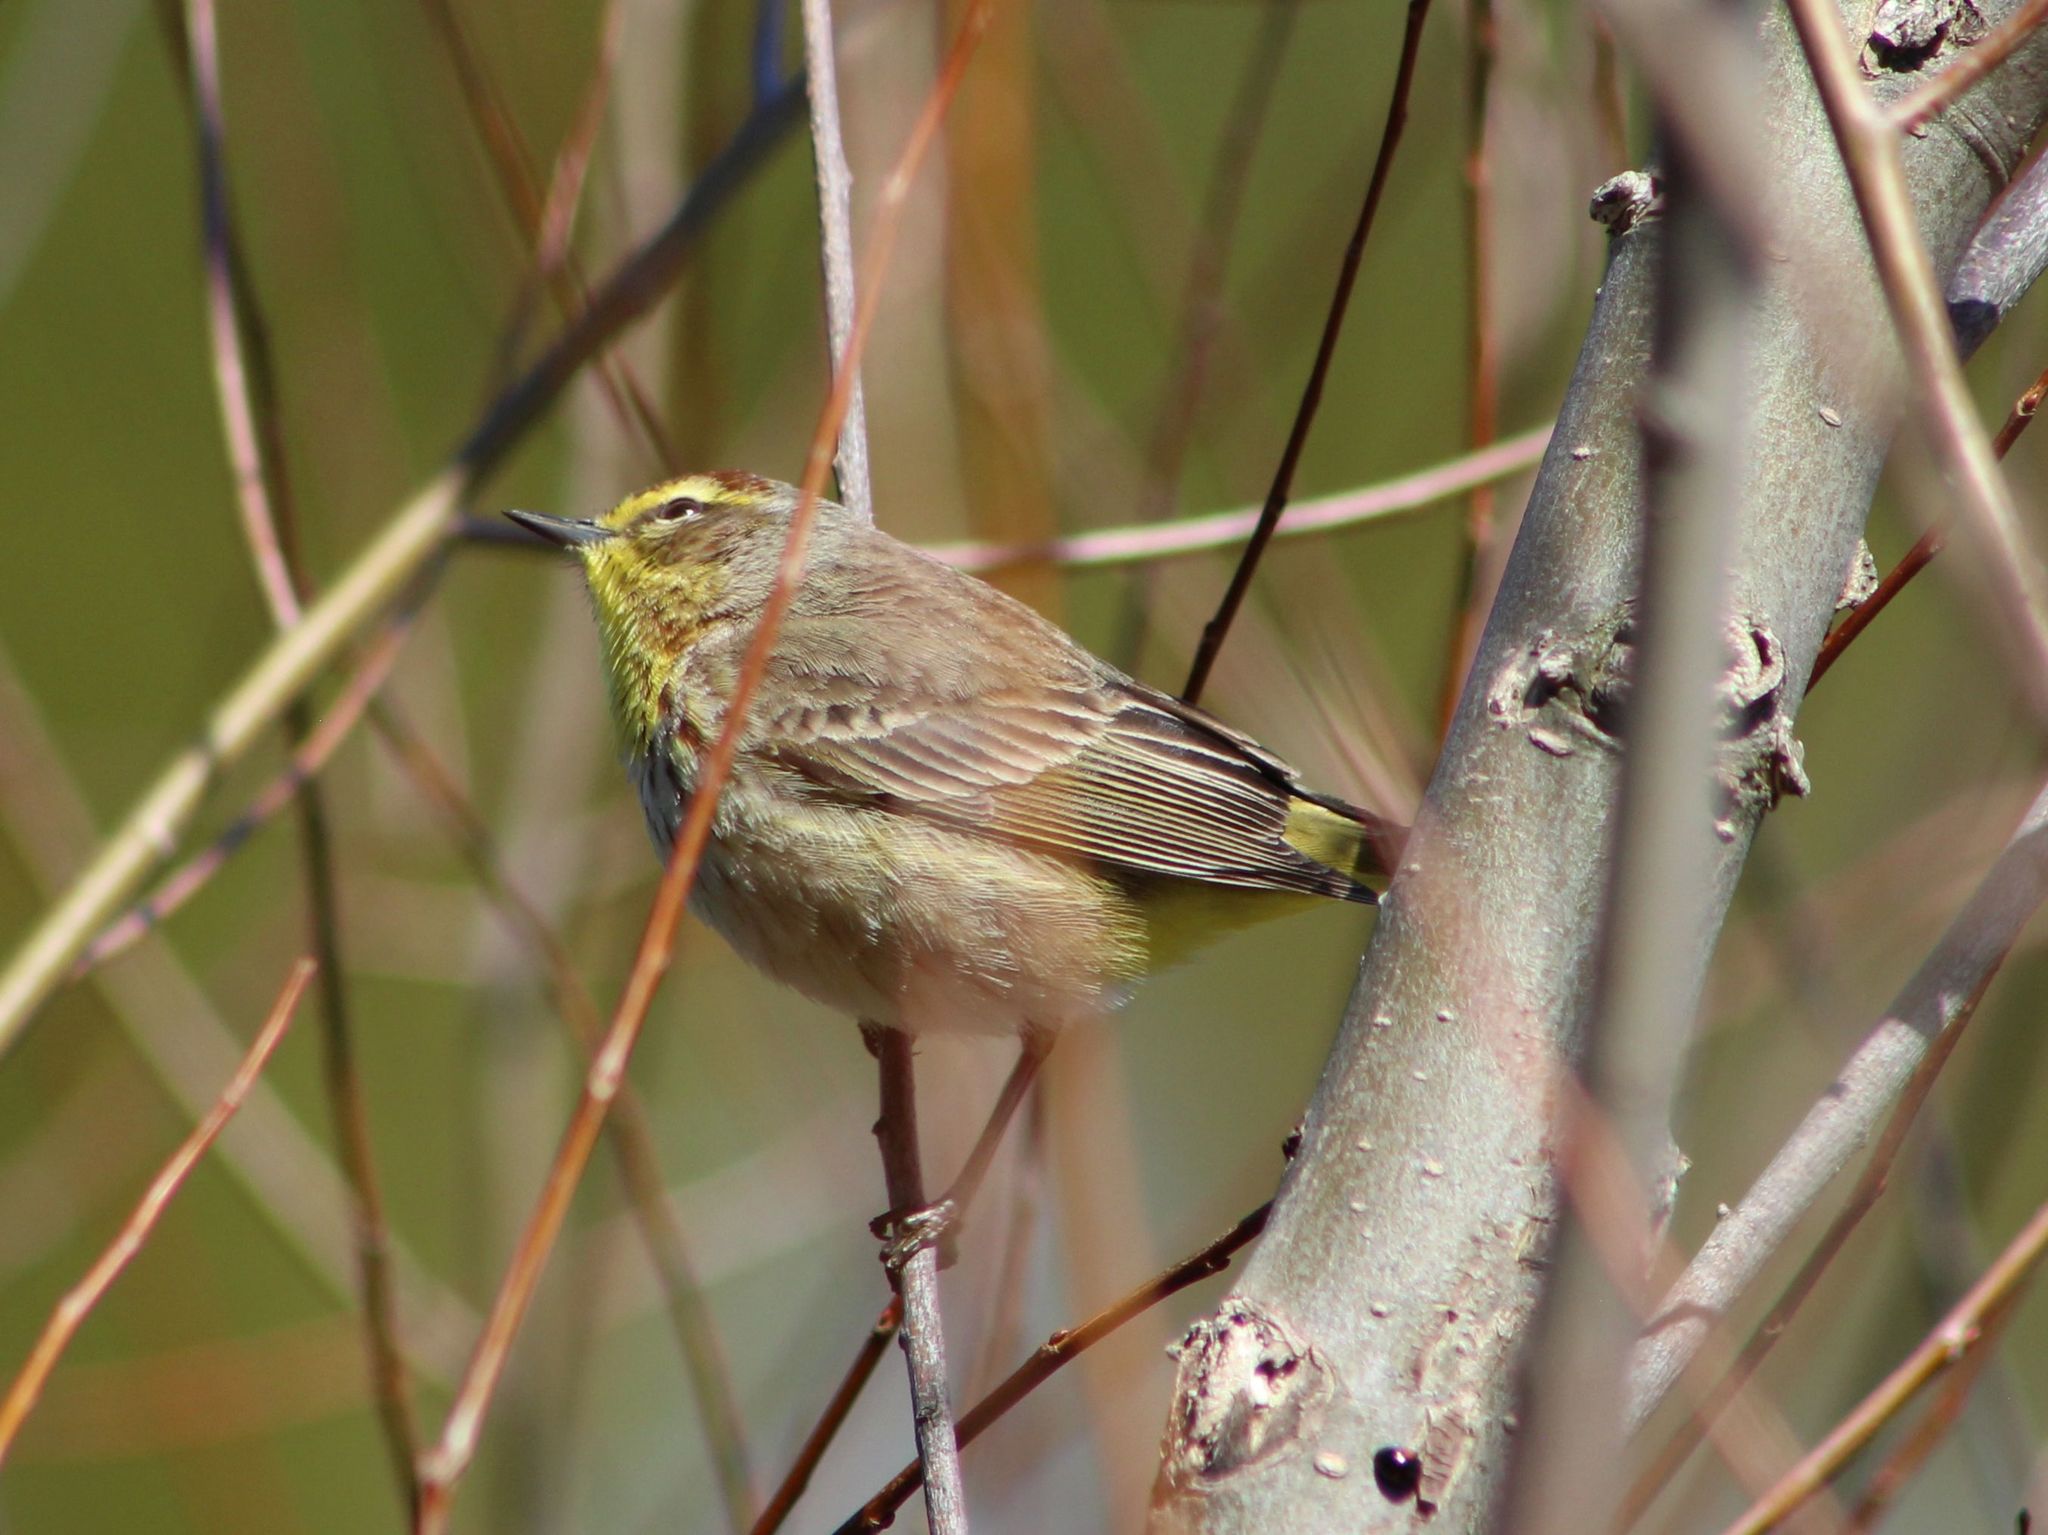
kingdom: Animalia
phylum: Chordata
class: Aves
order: Passeriformes
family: Parulidae
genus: Setophaga
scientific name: Setophaga palmarum
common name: Palm warbler
